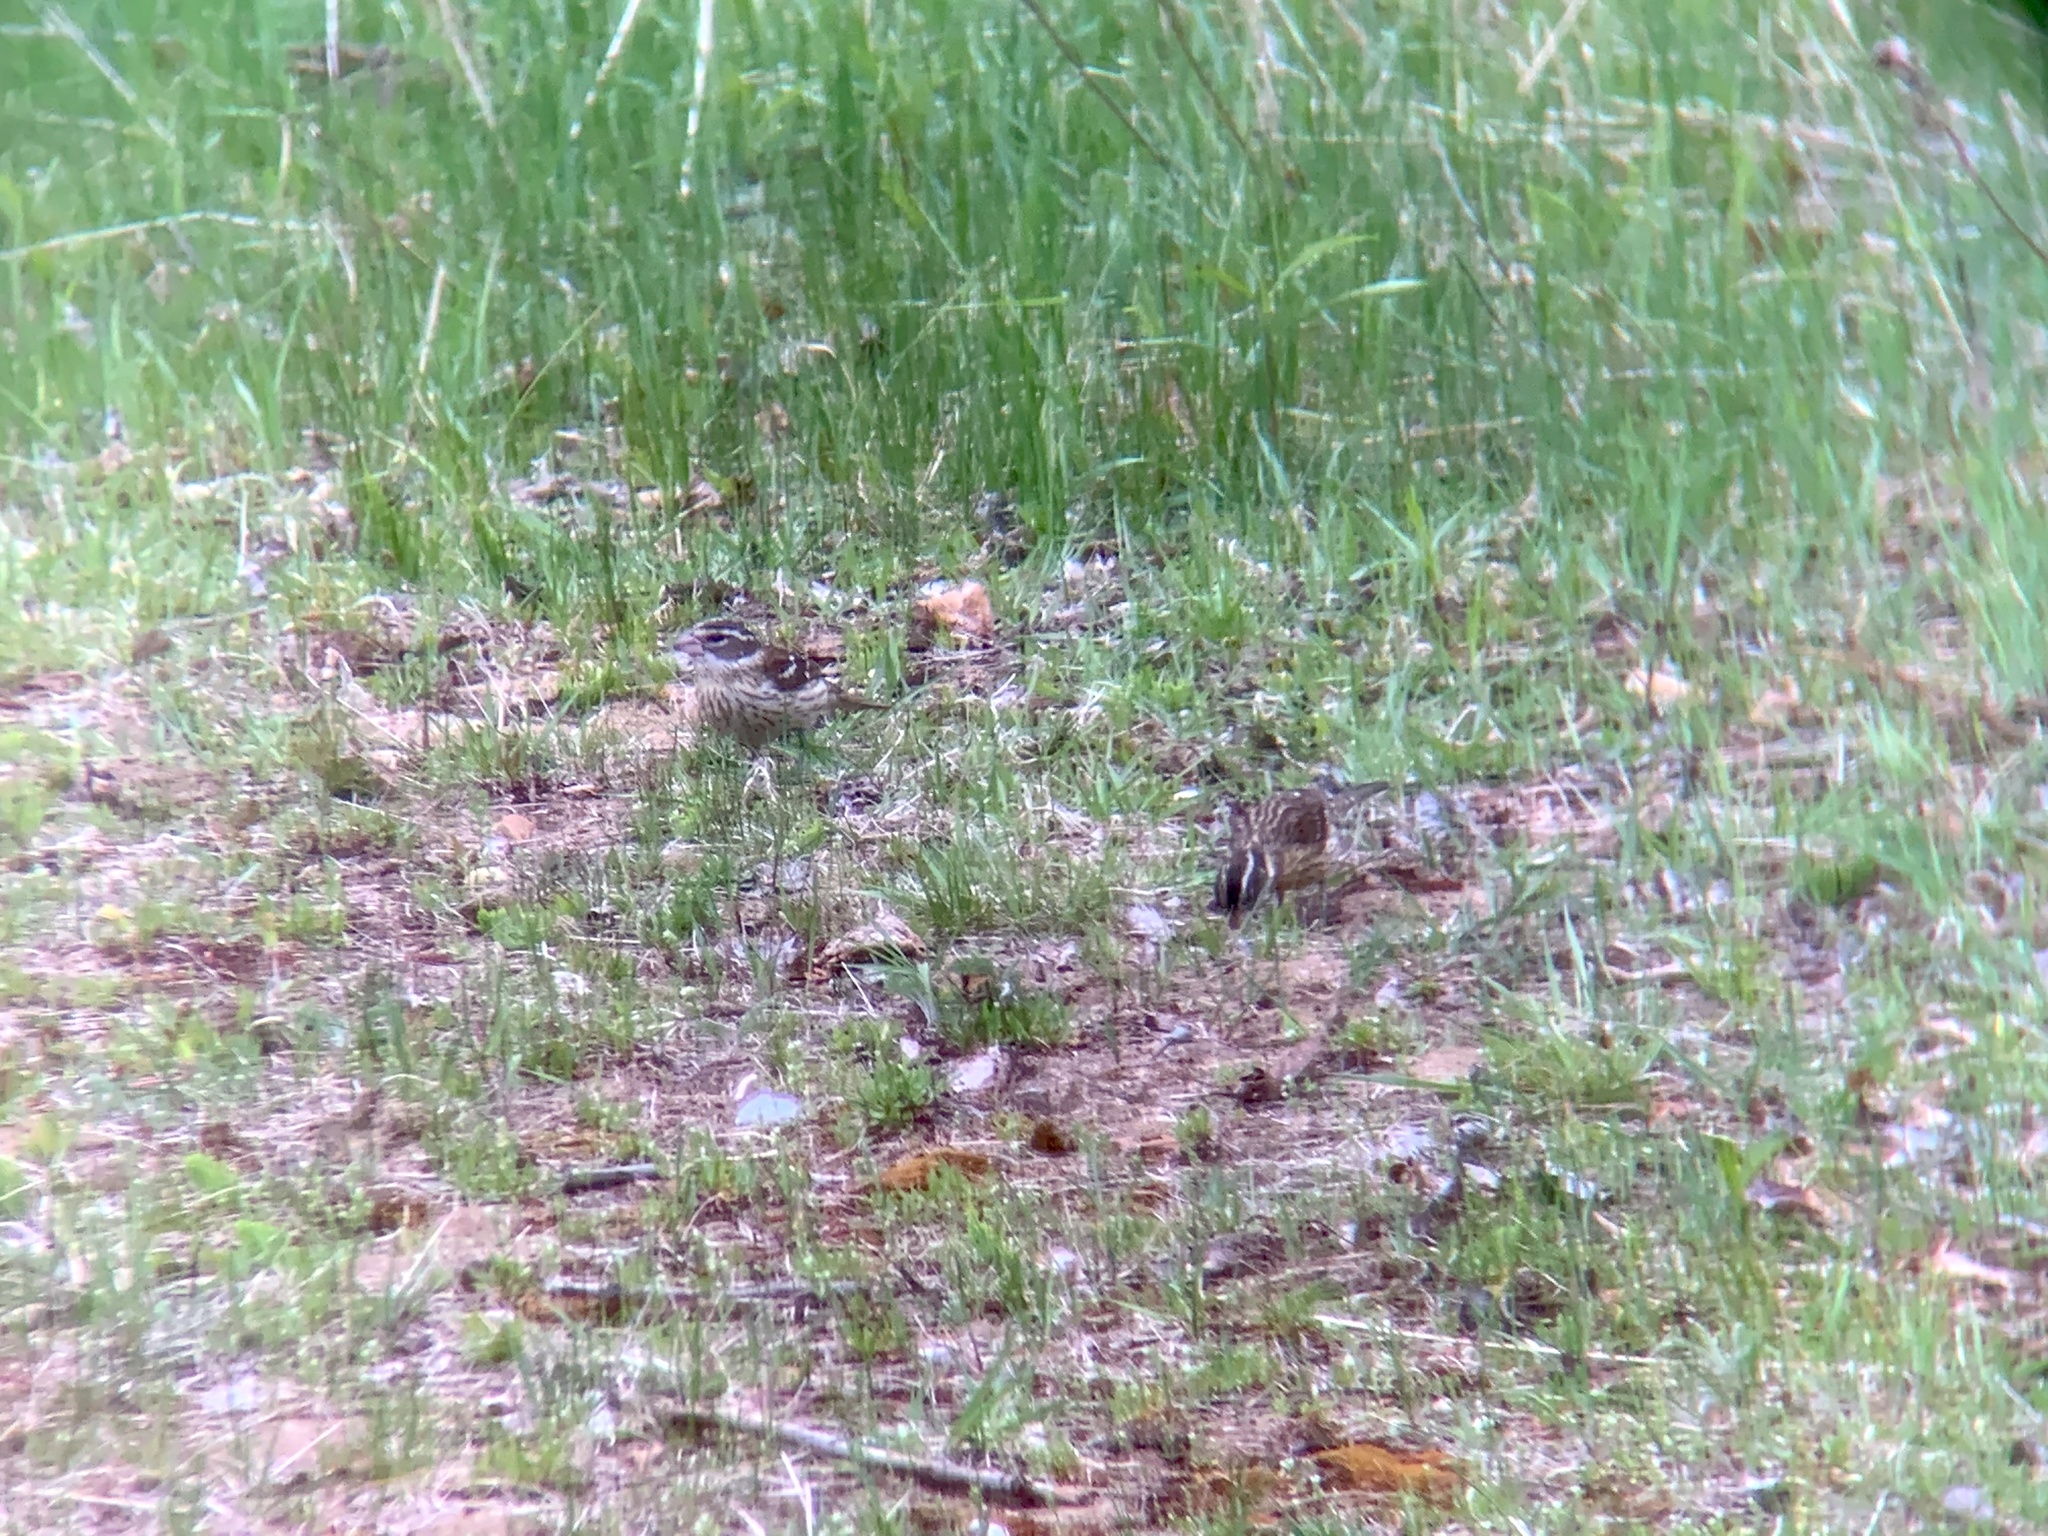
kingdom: Animalia
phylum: Chordata
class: Aves
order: Passeriformes
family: Cardinalidae
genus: Pheucticus
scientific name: Pheucticus ludovicianus
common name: Rose-breasted grosbeak
